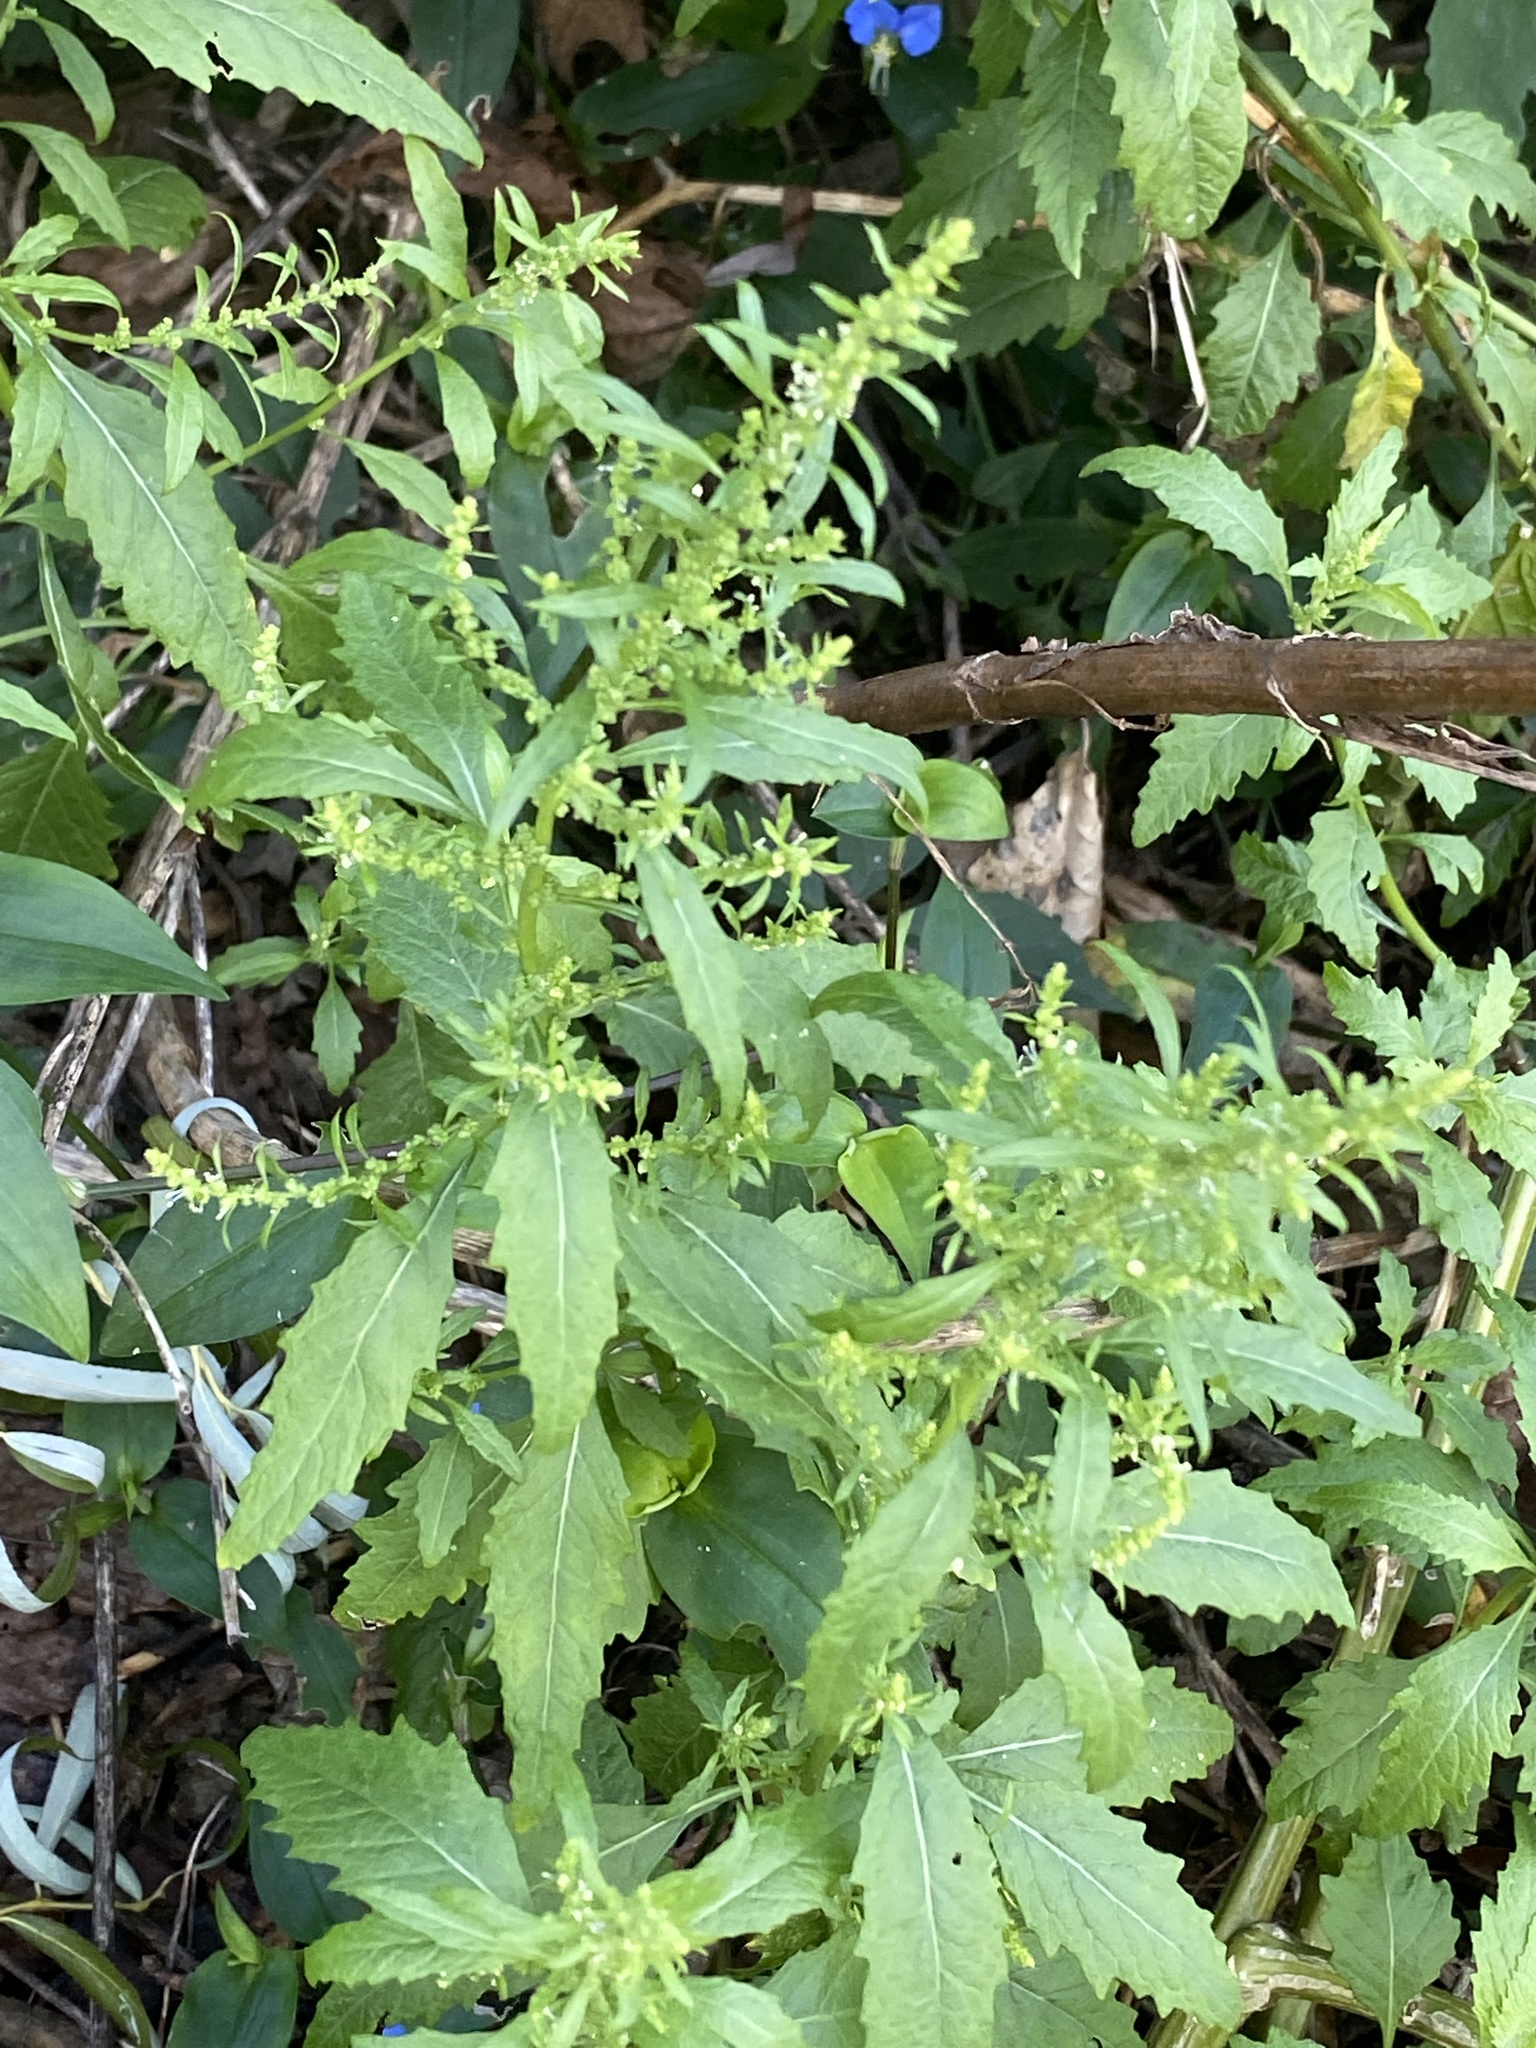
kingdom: Plantae
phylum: Tracheophyta
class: Magnoliopsida
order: Caryophyllales
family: Amaranthaceae
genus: Dysphania
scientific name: Dysphania ambrosioides
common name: Wormseed
